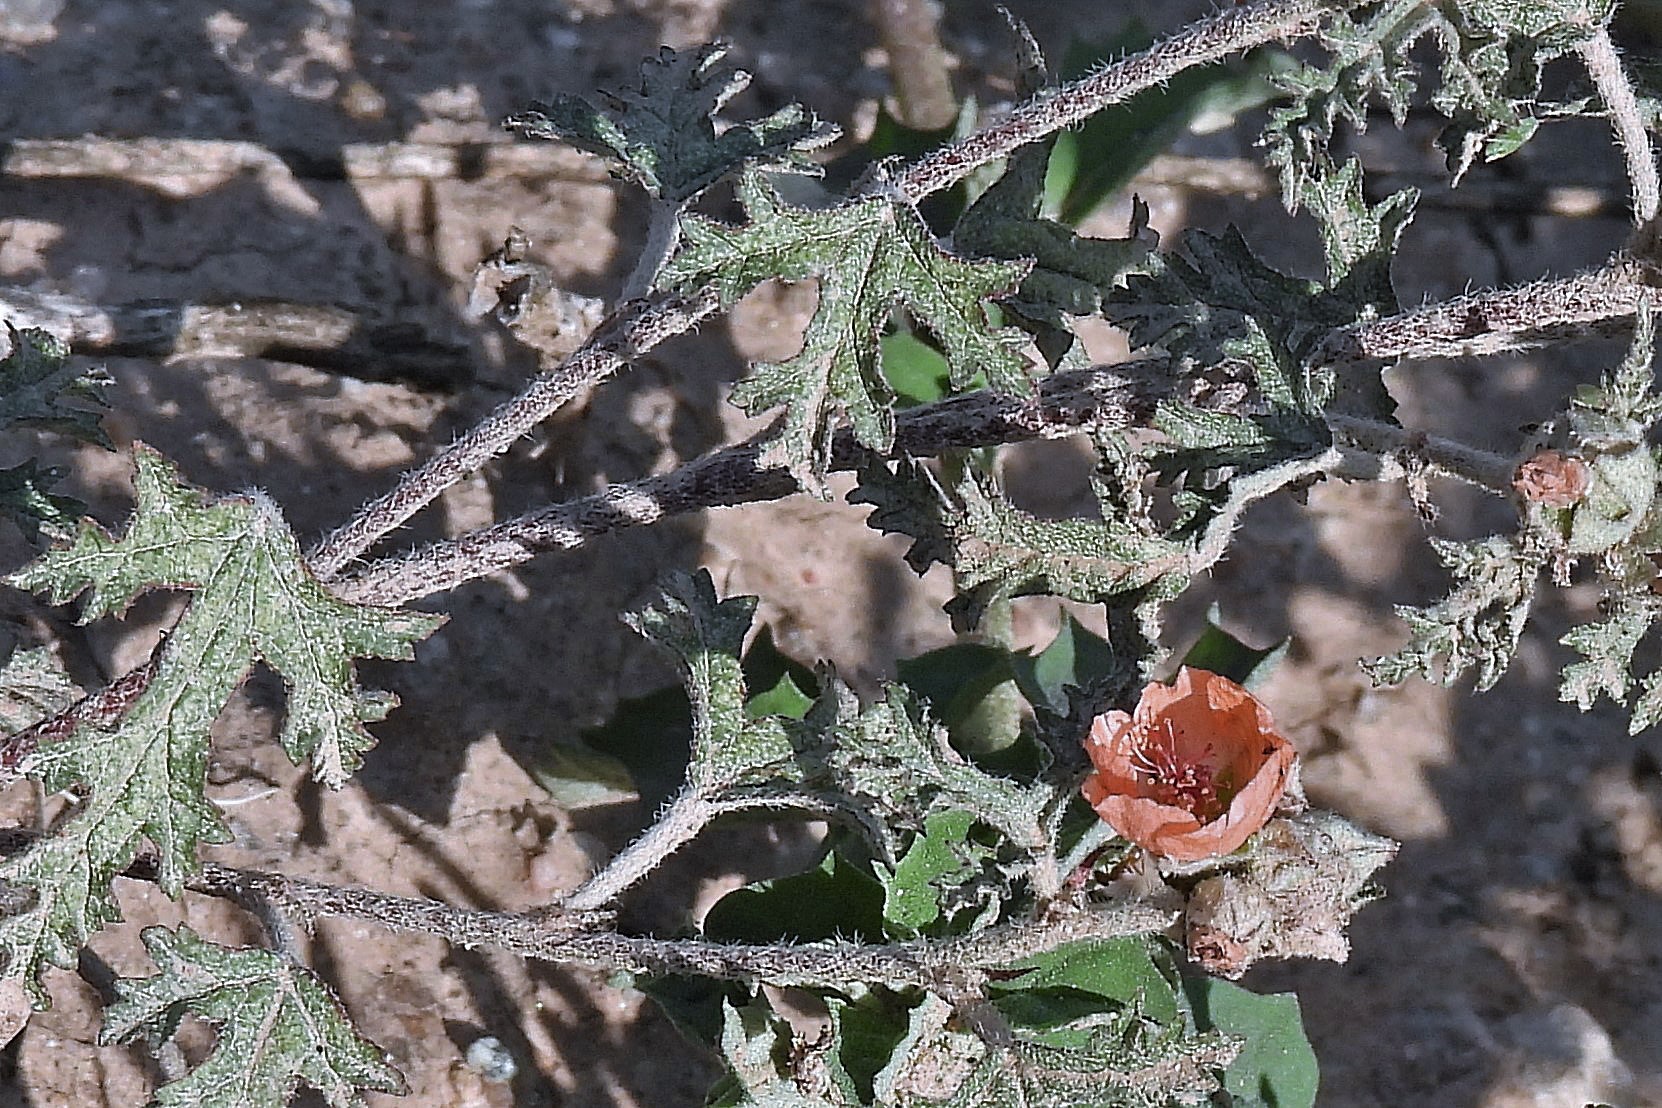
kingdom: Plantae
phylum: Tracheophyta
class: Magnoliopsida
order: Malvales
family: Malvaceae
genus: Sphaeralcea
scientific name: Sphaeralcea laciniata
